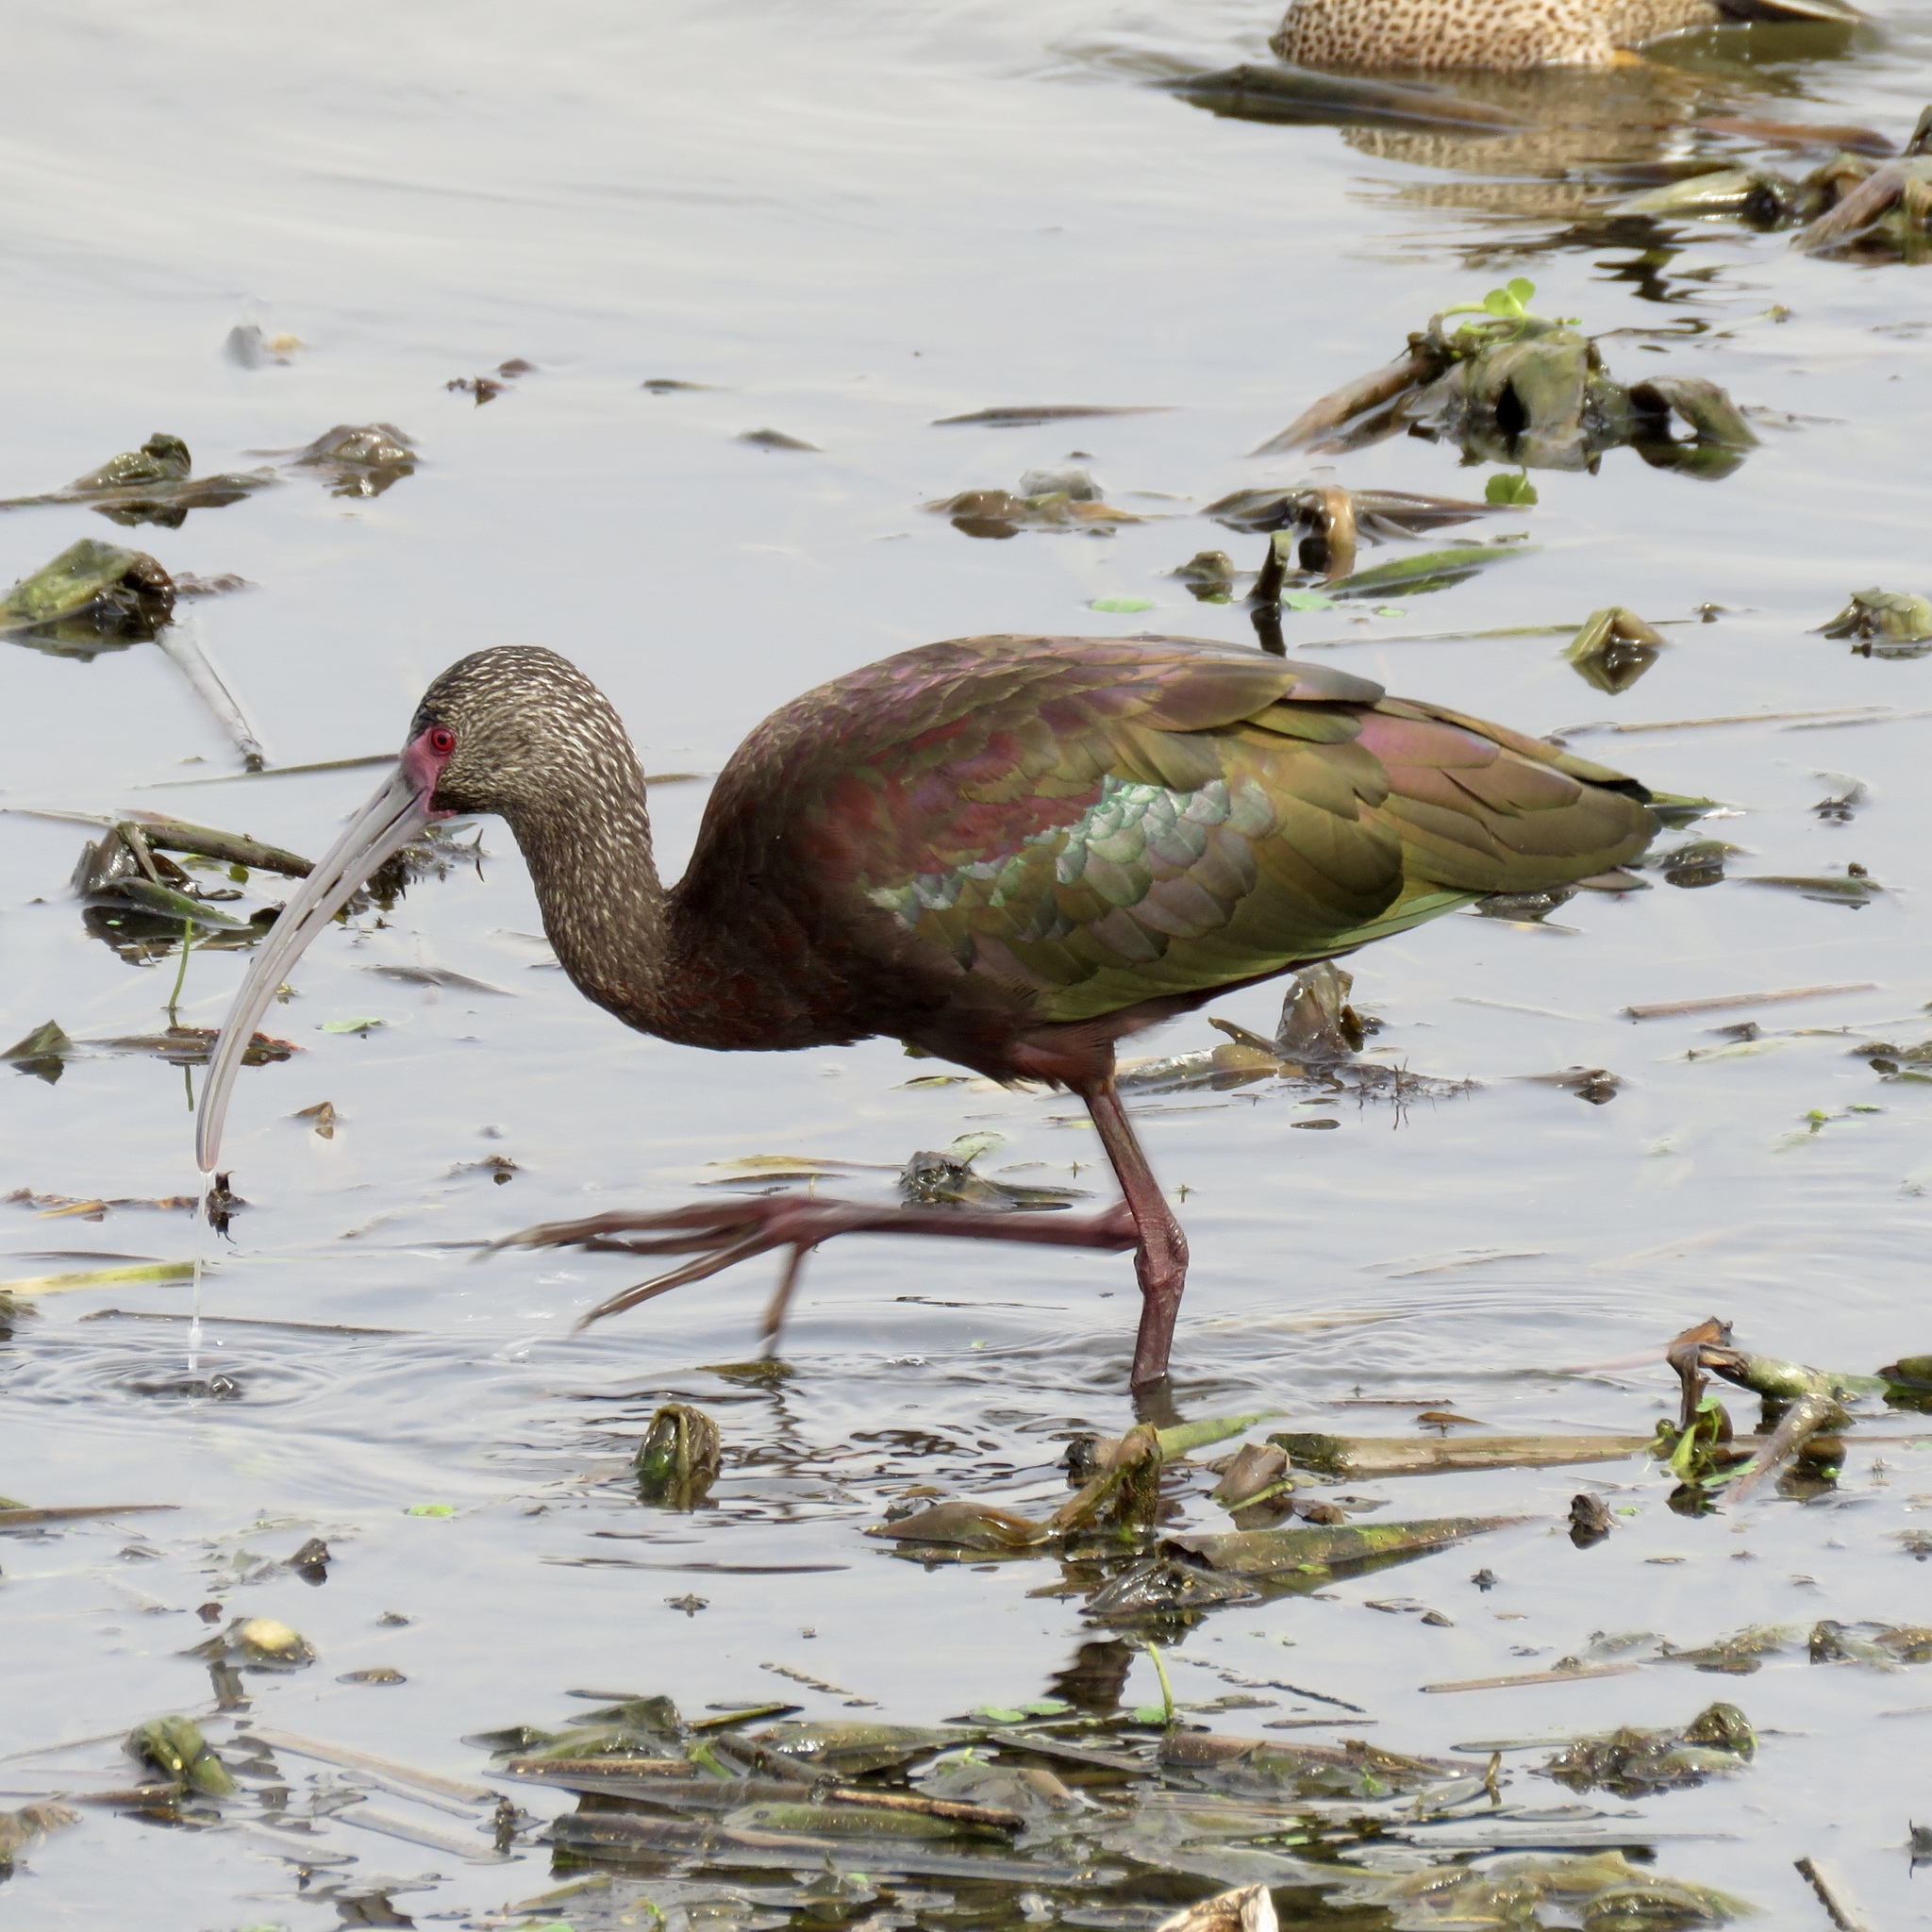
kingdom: Animalia
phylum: Chordata
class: Aves
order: Pelecaniformes
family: Threskiornithidae
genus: Plegadis
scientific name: Plegadis chihi
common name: White-faced ibis
